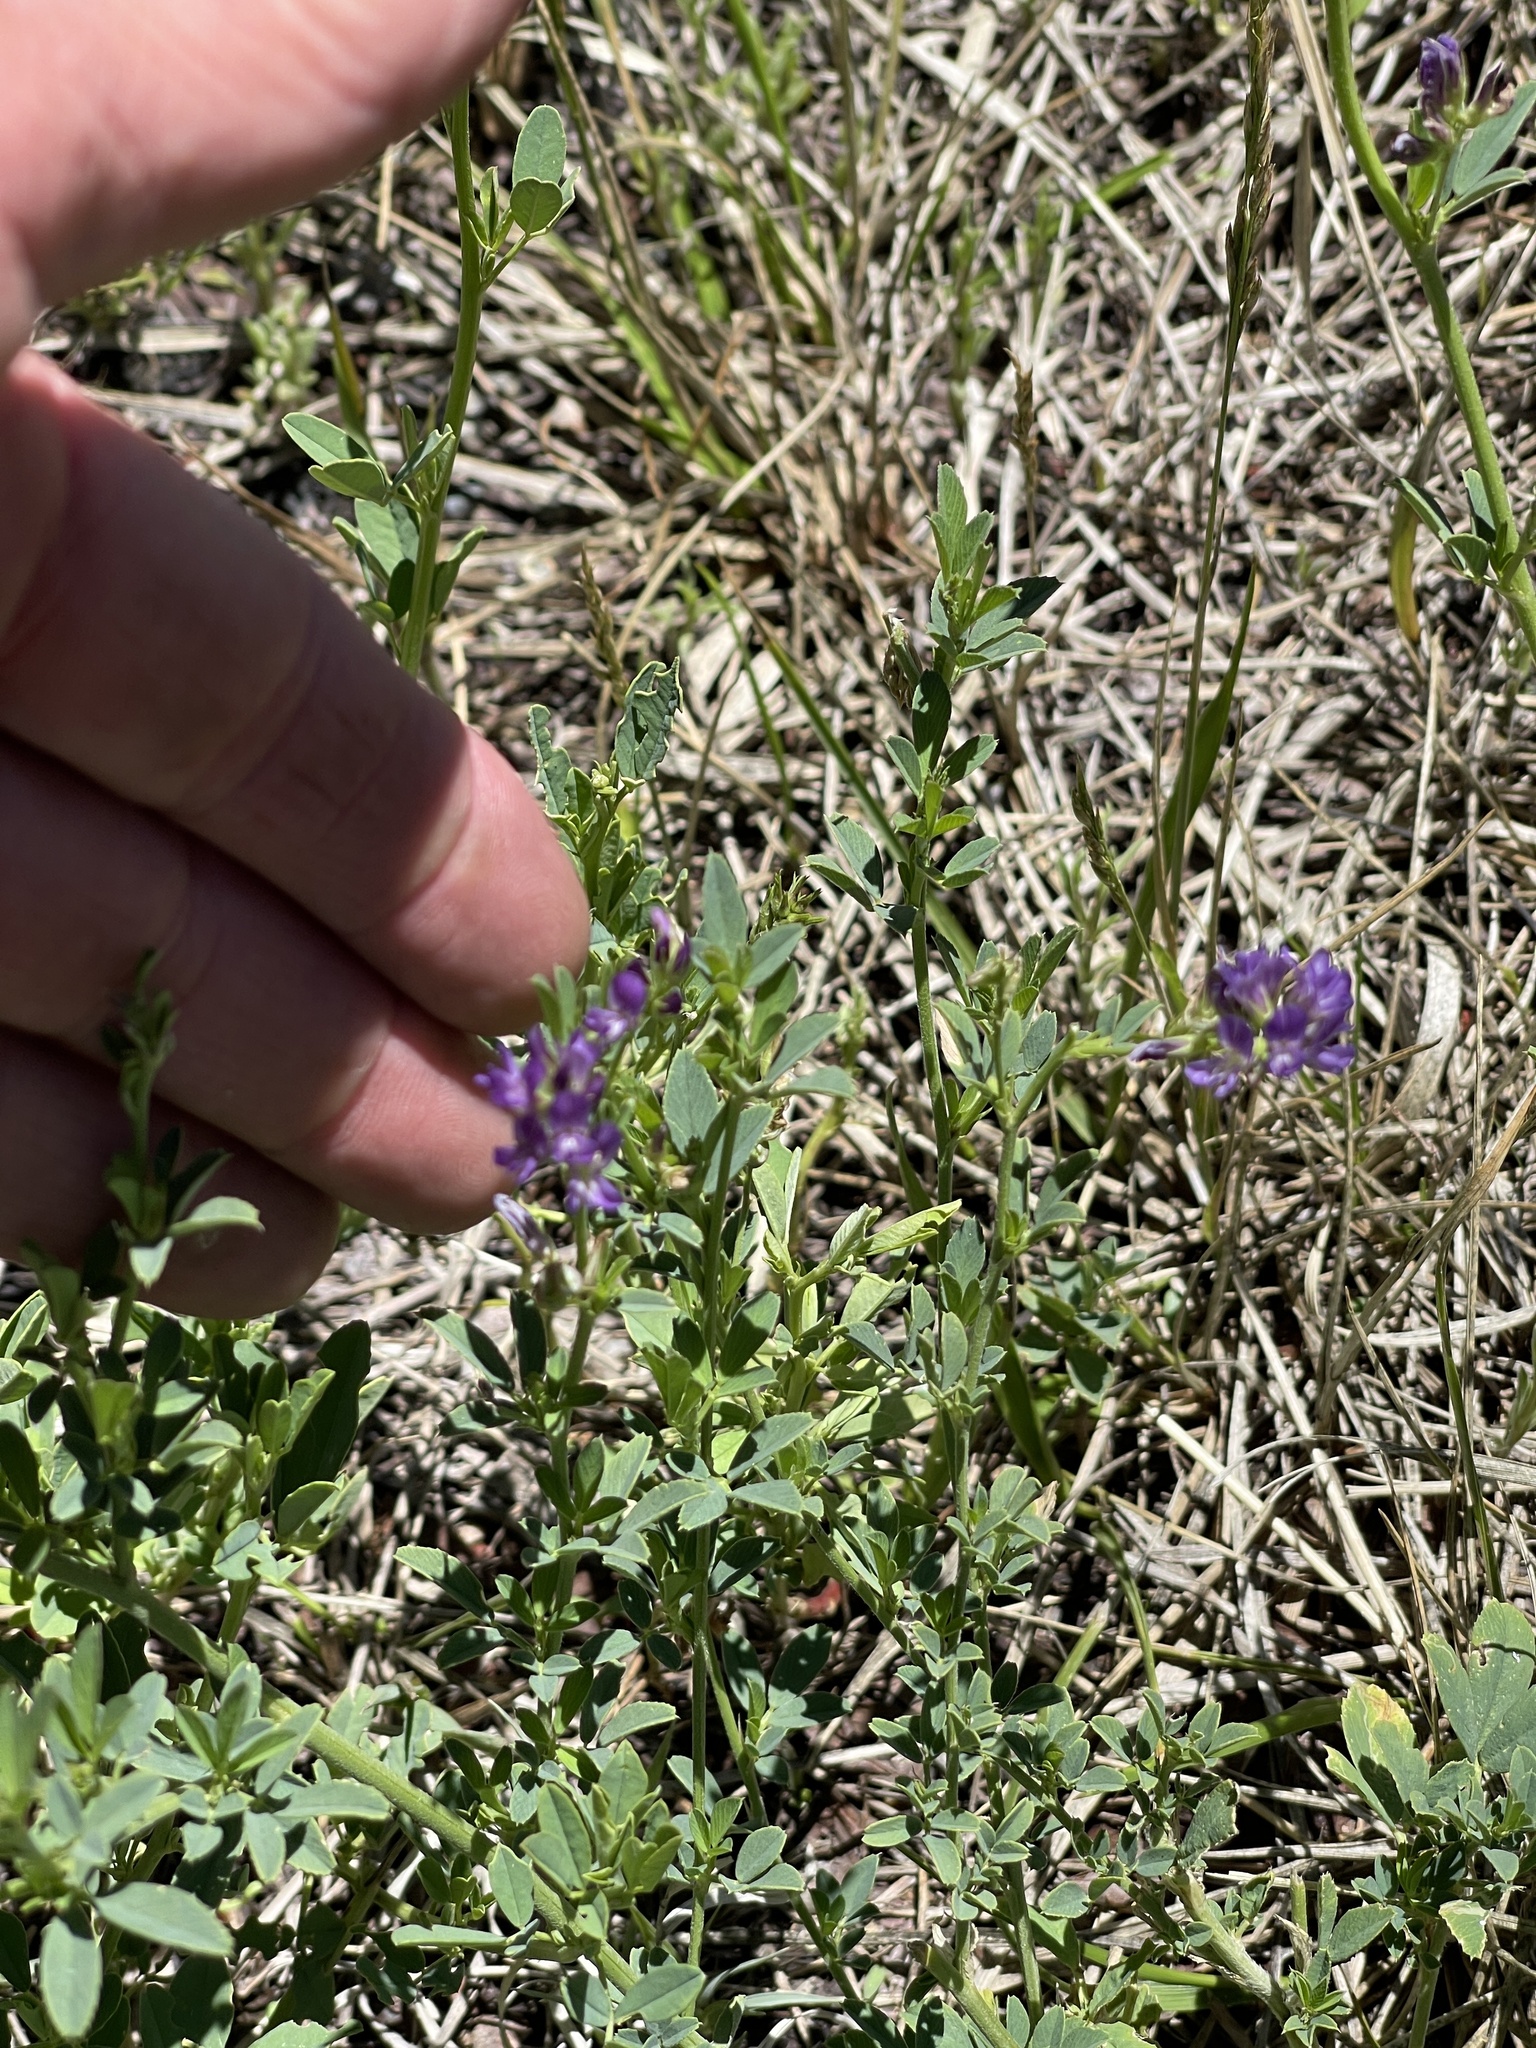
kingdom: Plantae
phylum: Tracheophyta
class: Magnoliopsida
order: Fabales
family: Fabaceae
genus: Medicago
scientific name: Medicago sativa
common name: Alfalfa
